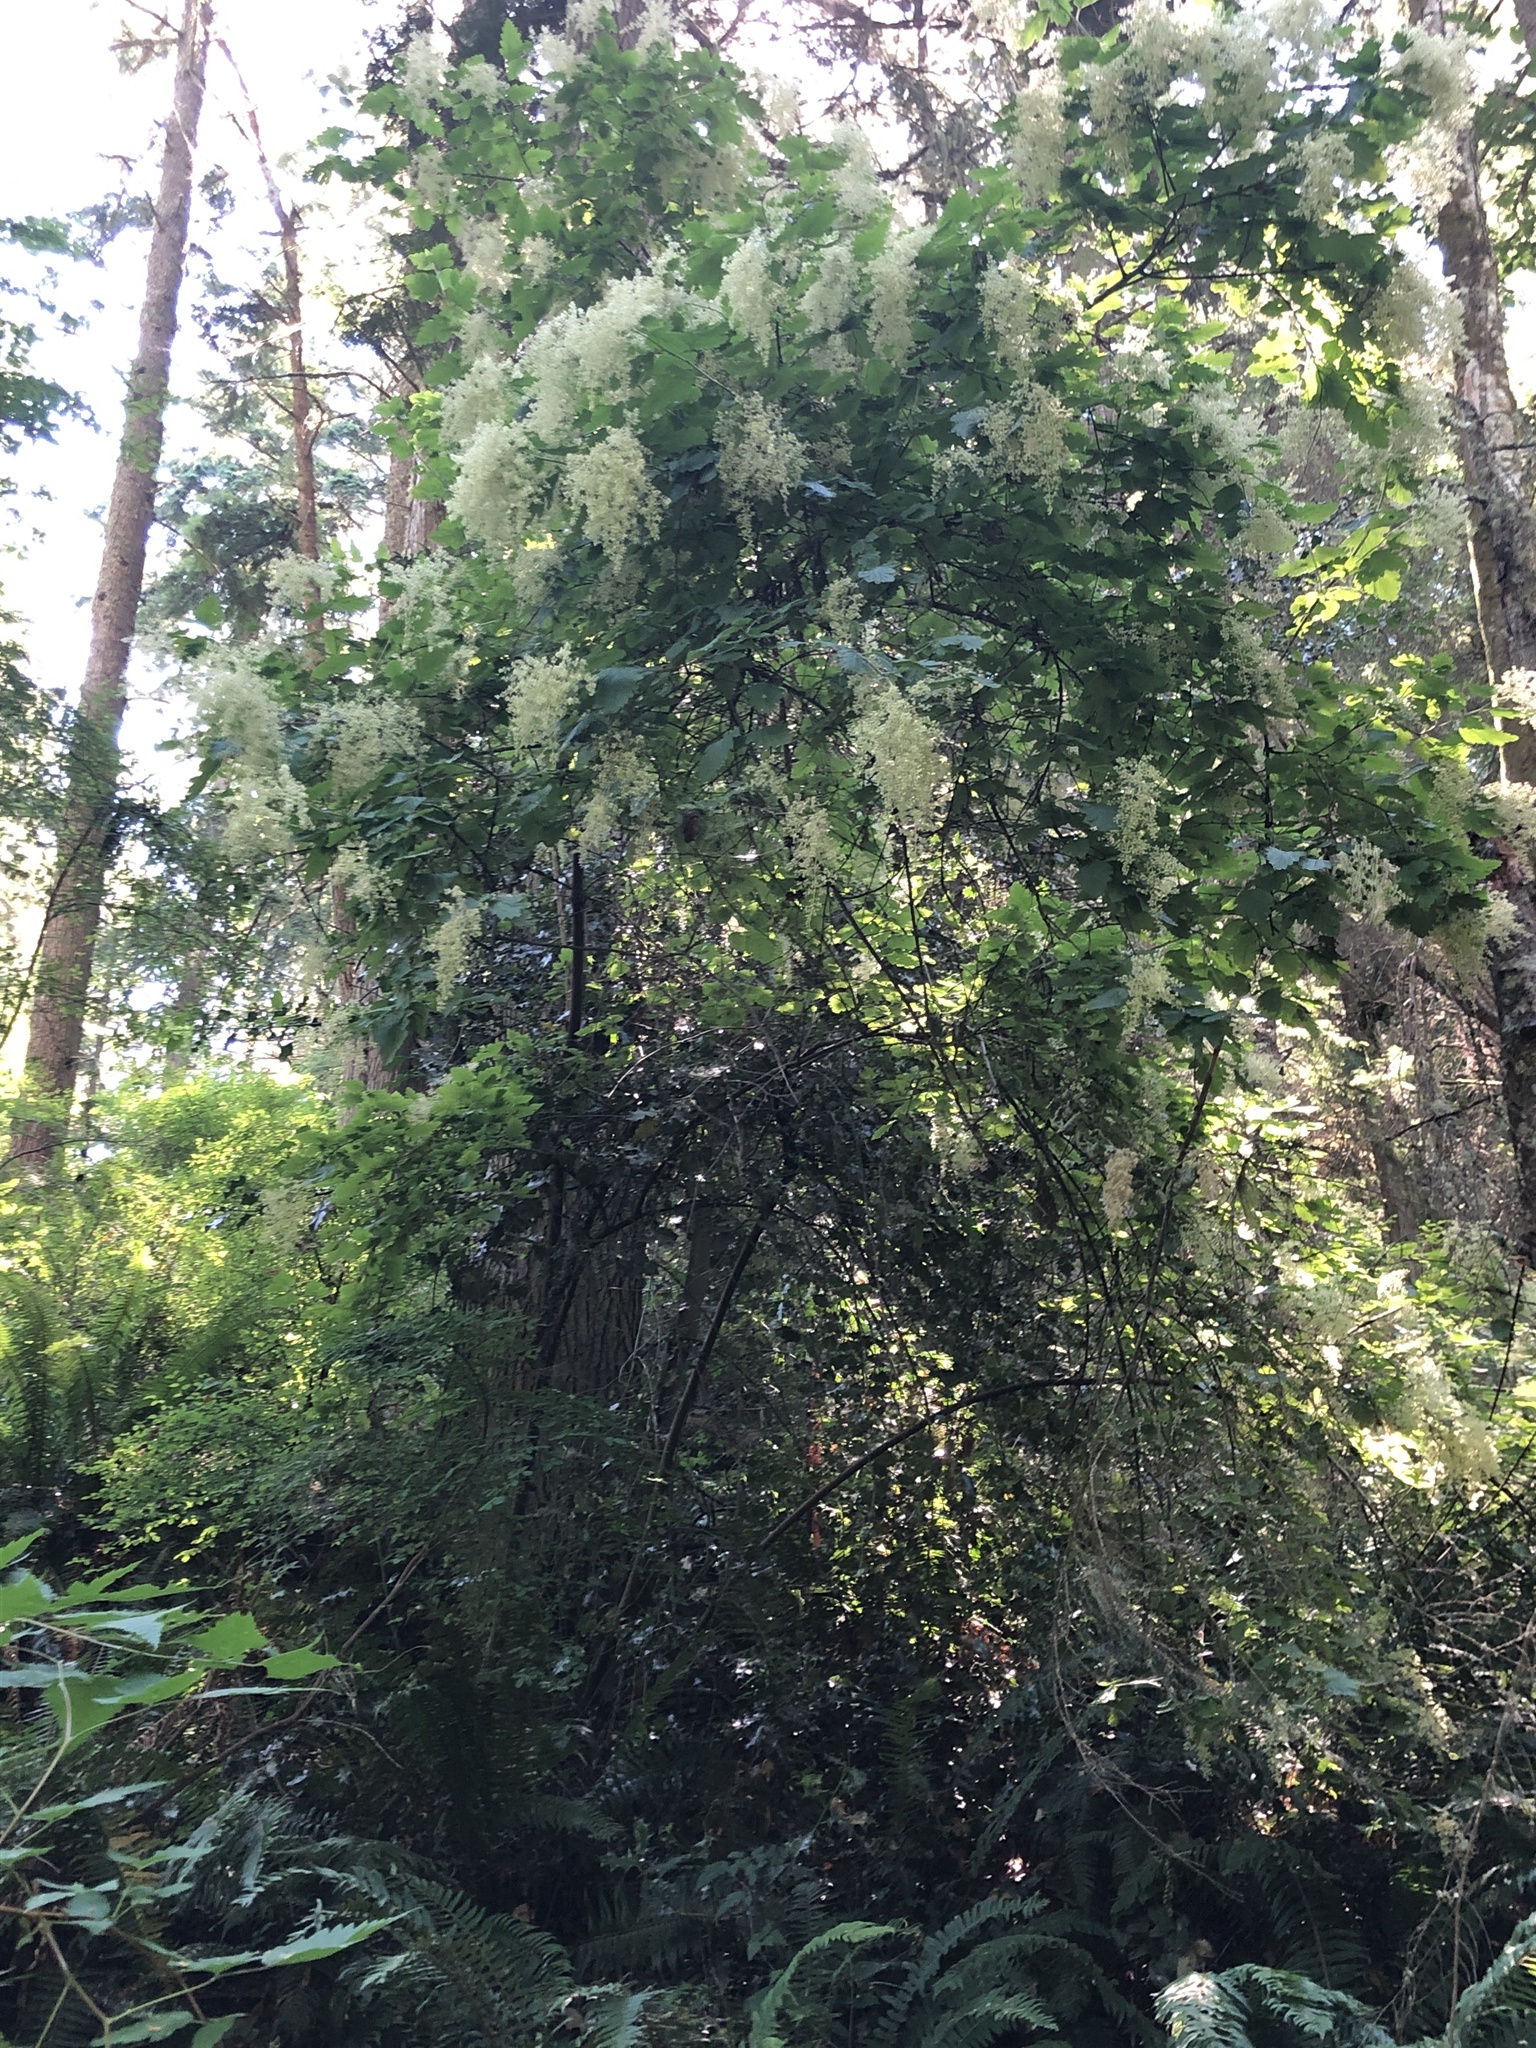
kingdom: Plantae
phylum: Tracheophyta
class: Magnoliopsida
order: Rosales
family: Rosaceae
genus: Holodiscus
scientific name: Holodiscus discolor
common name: Oceanspray
